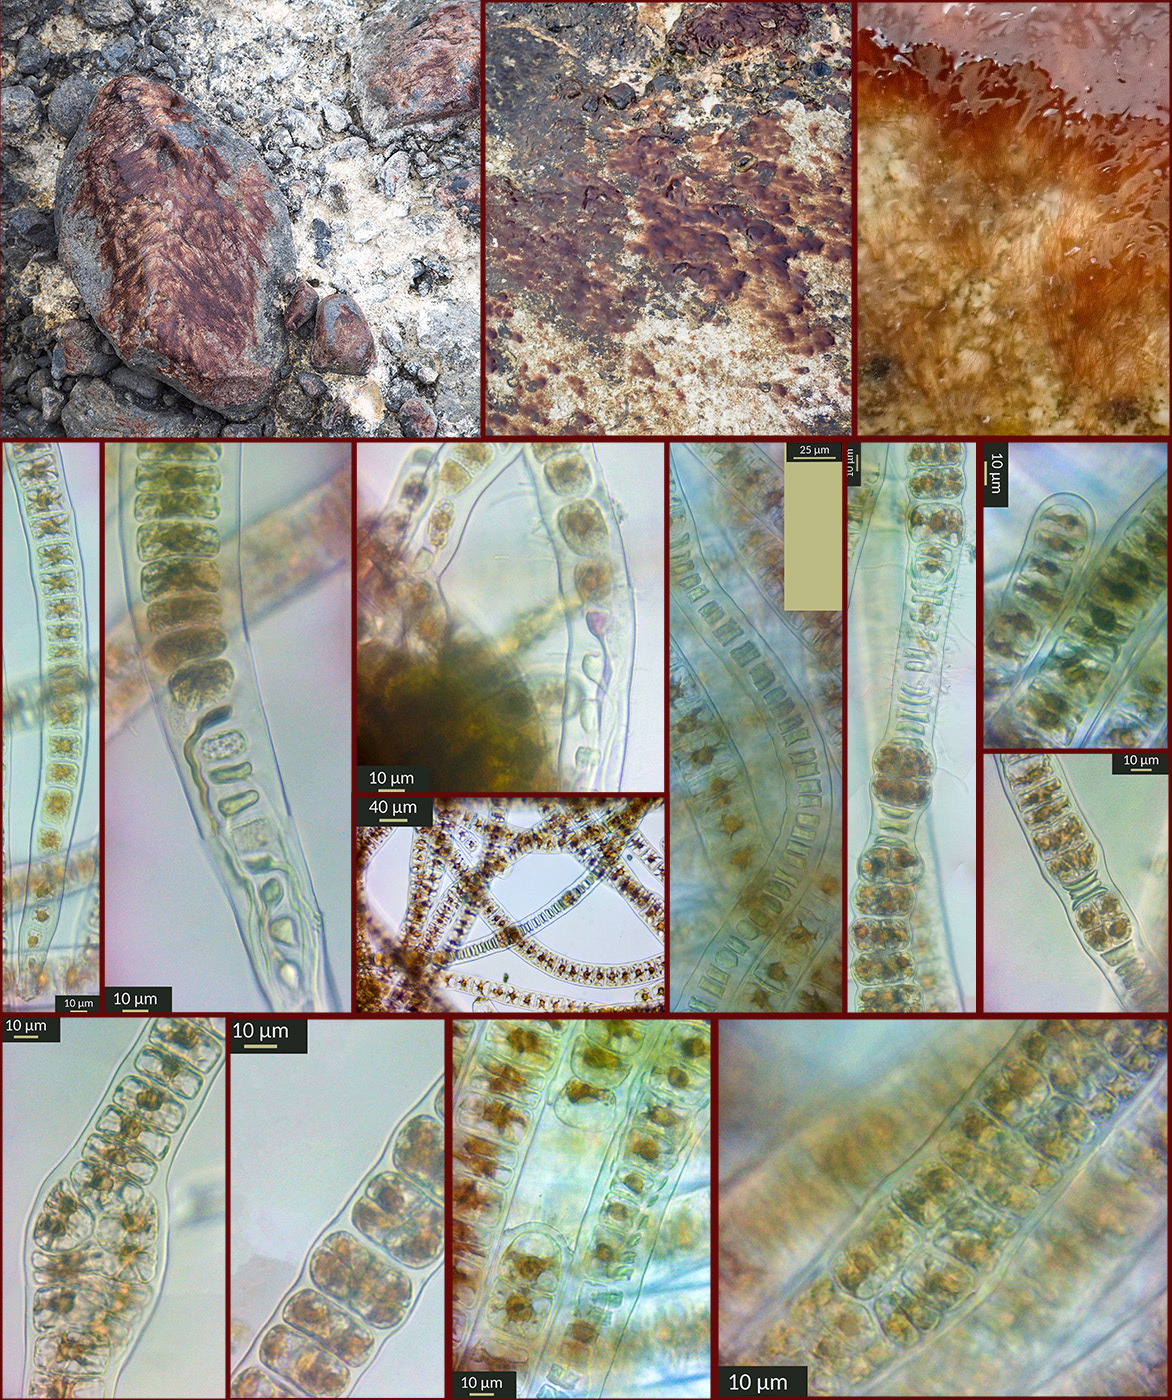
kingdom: Plantae
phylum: Rhodophyta
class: Bangiophyceae
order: Bangiales
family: Bangiaceae
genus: Bangia
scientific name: Bangia fuscopurpurea
